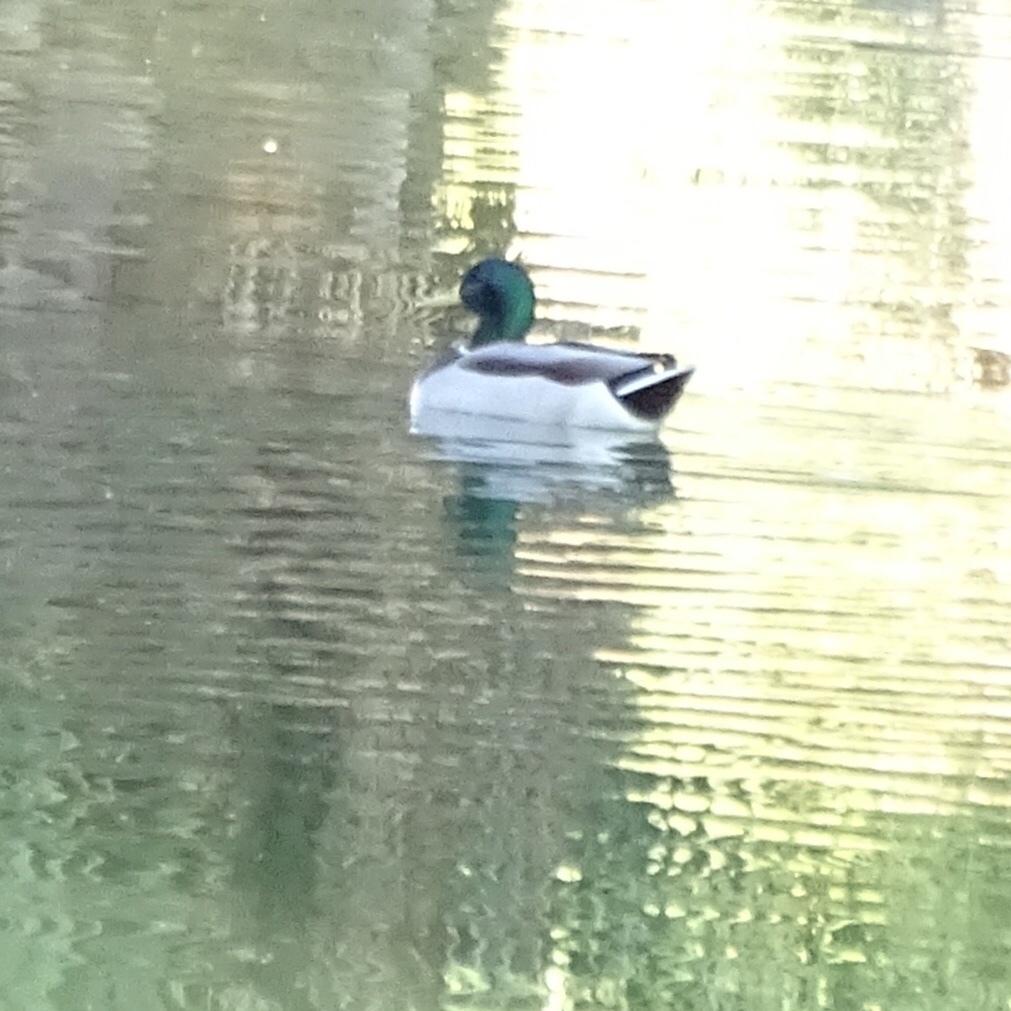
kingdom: Animalia
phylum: Chordata
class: Aves
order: Anseriformes
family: Anatidae
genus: Anas
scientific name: Anas platyrhynchos
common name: Mallard
